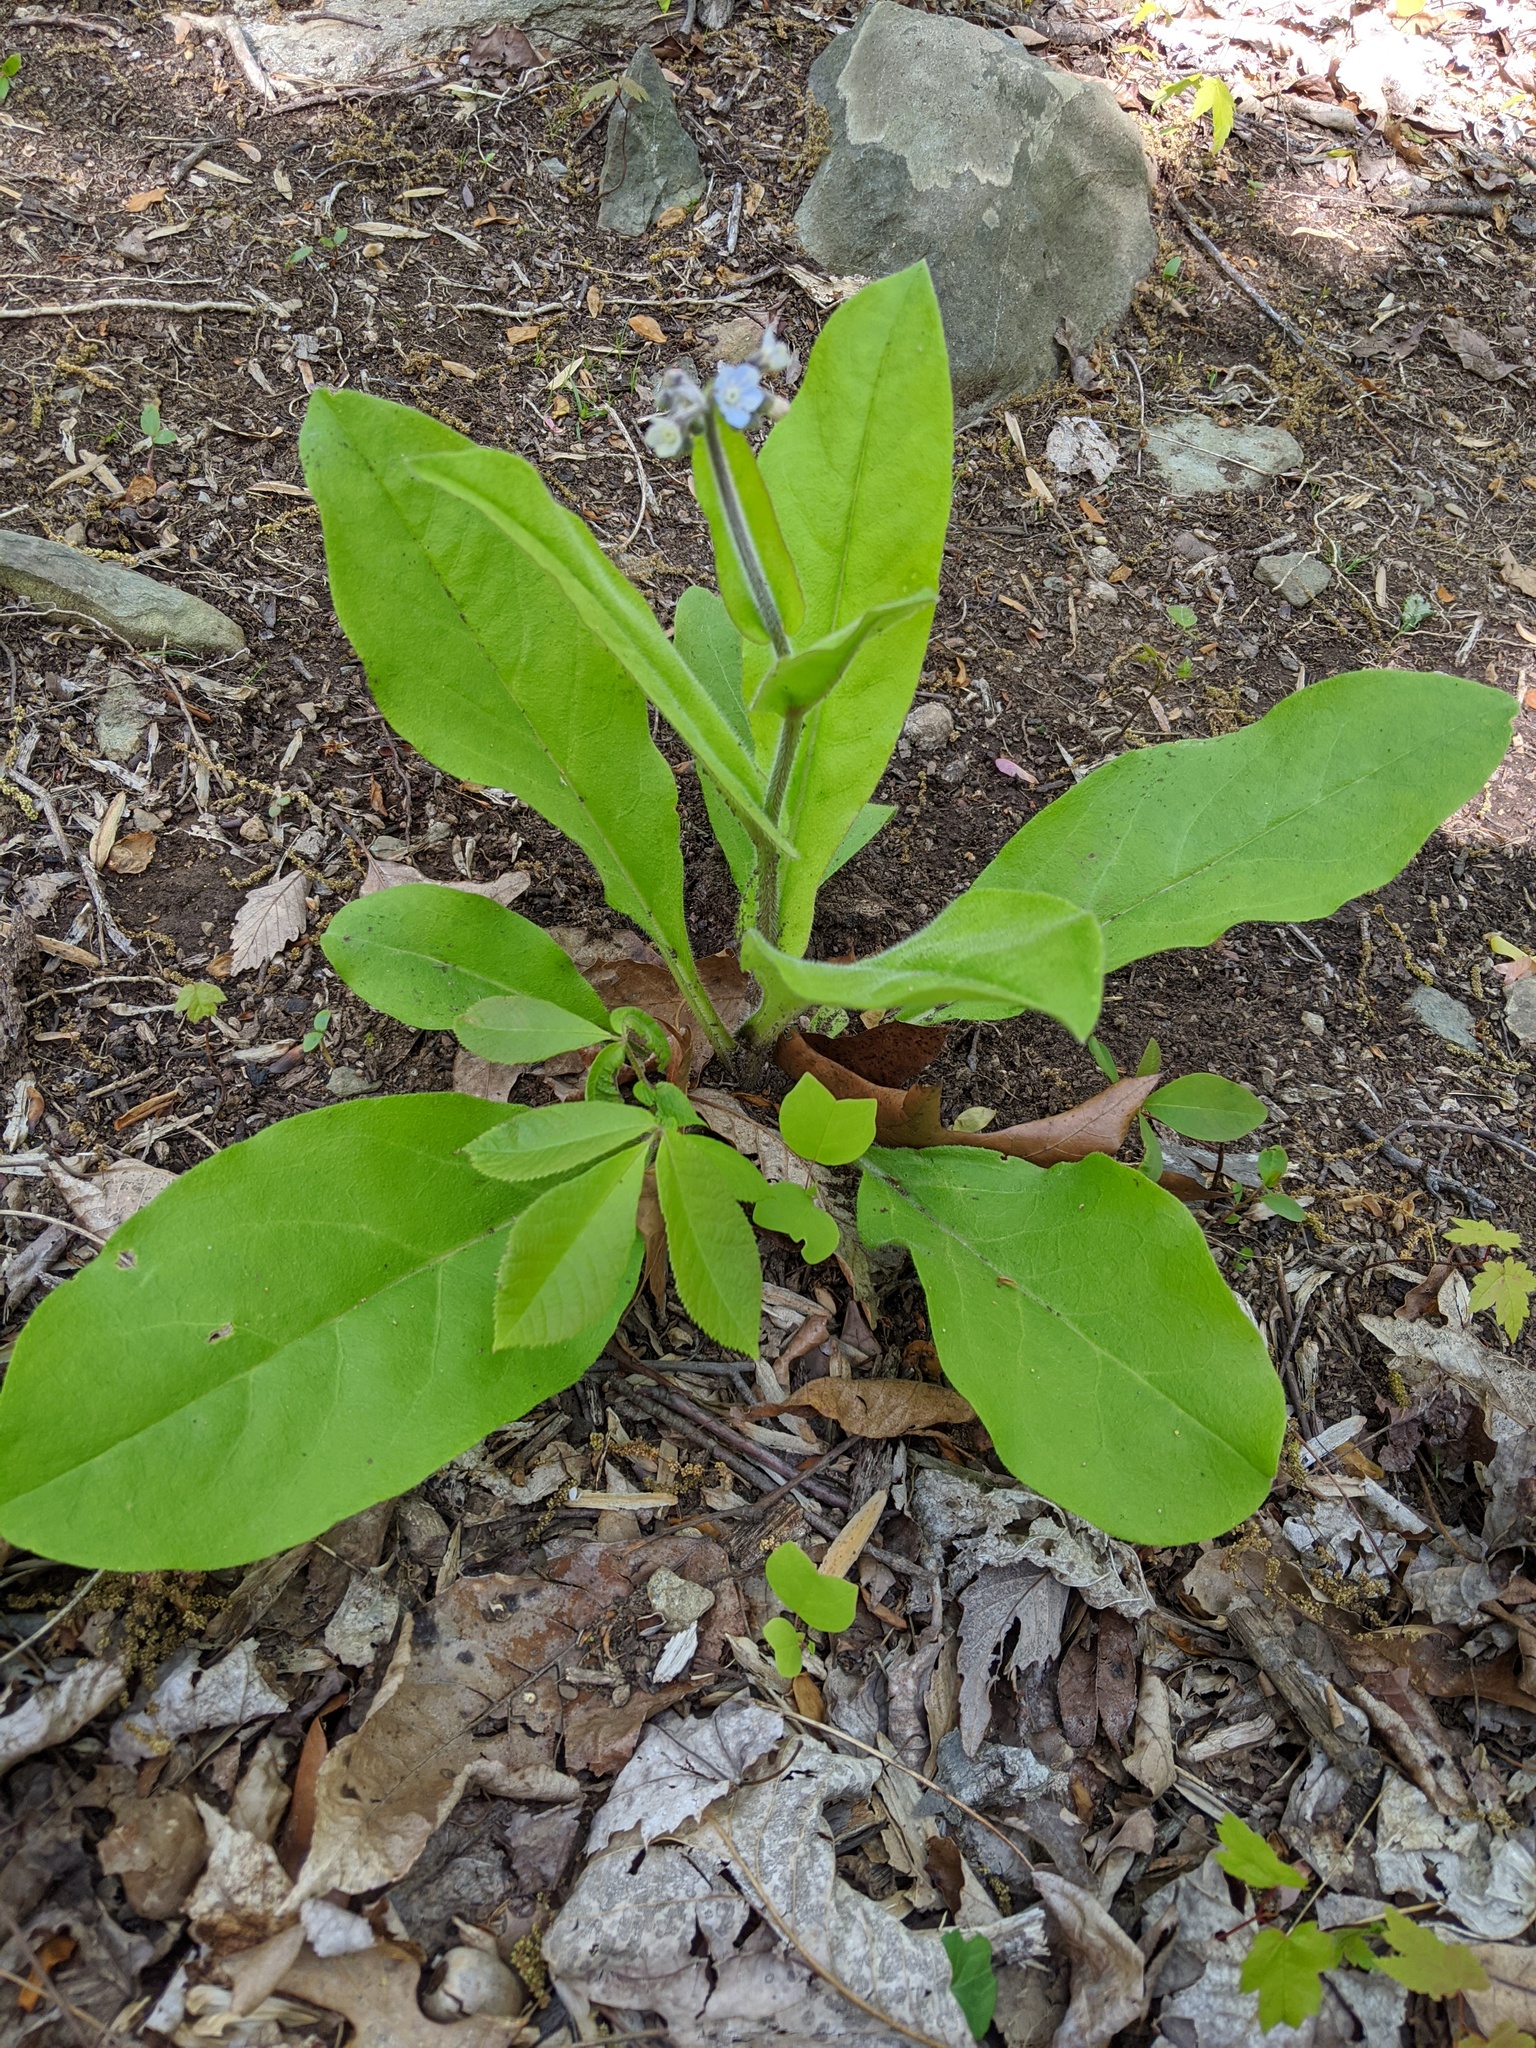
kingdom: Plantae
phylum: Tracheophyta
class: Magnoliopsida
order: Boraginales
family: Boraginaceae
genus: Andersonglossum
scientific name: Andersonglossum virginianum
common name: Wild comfrey
